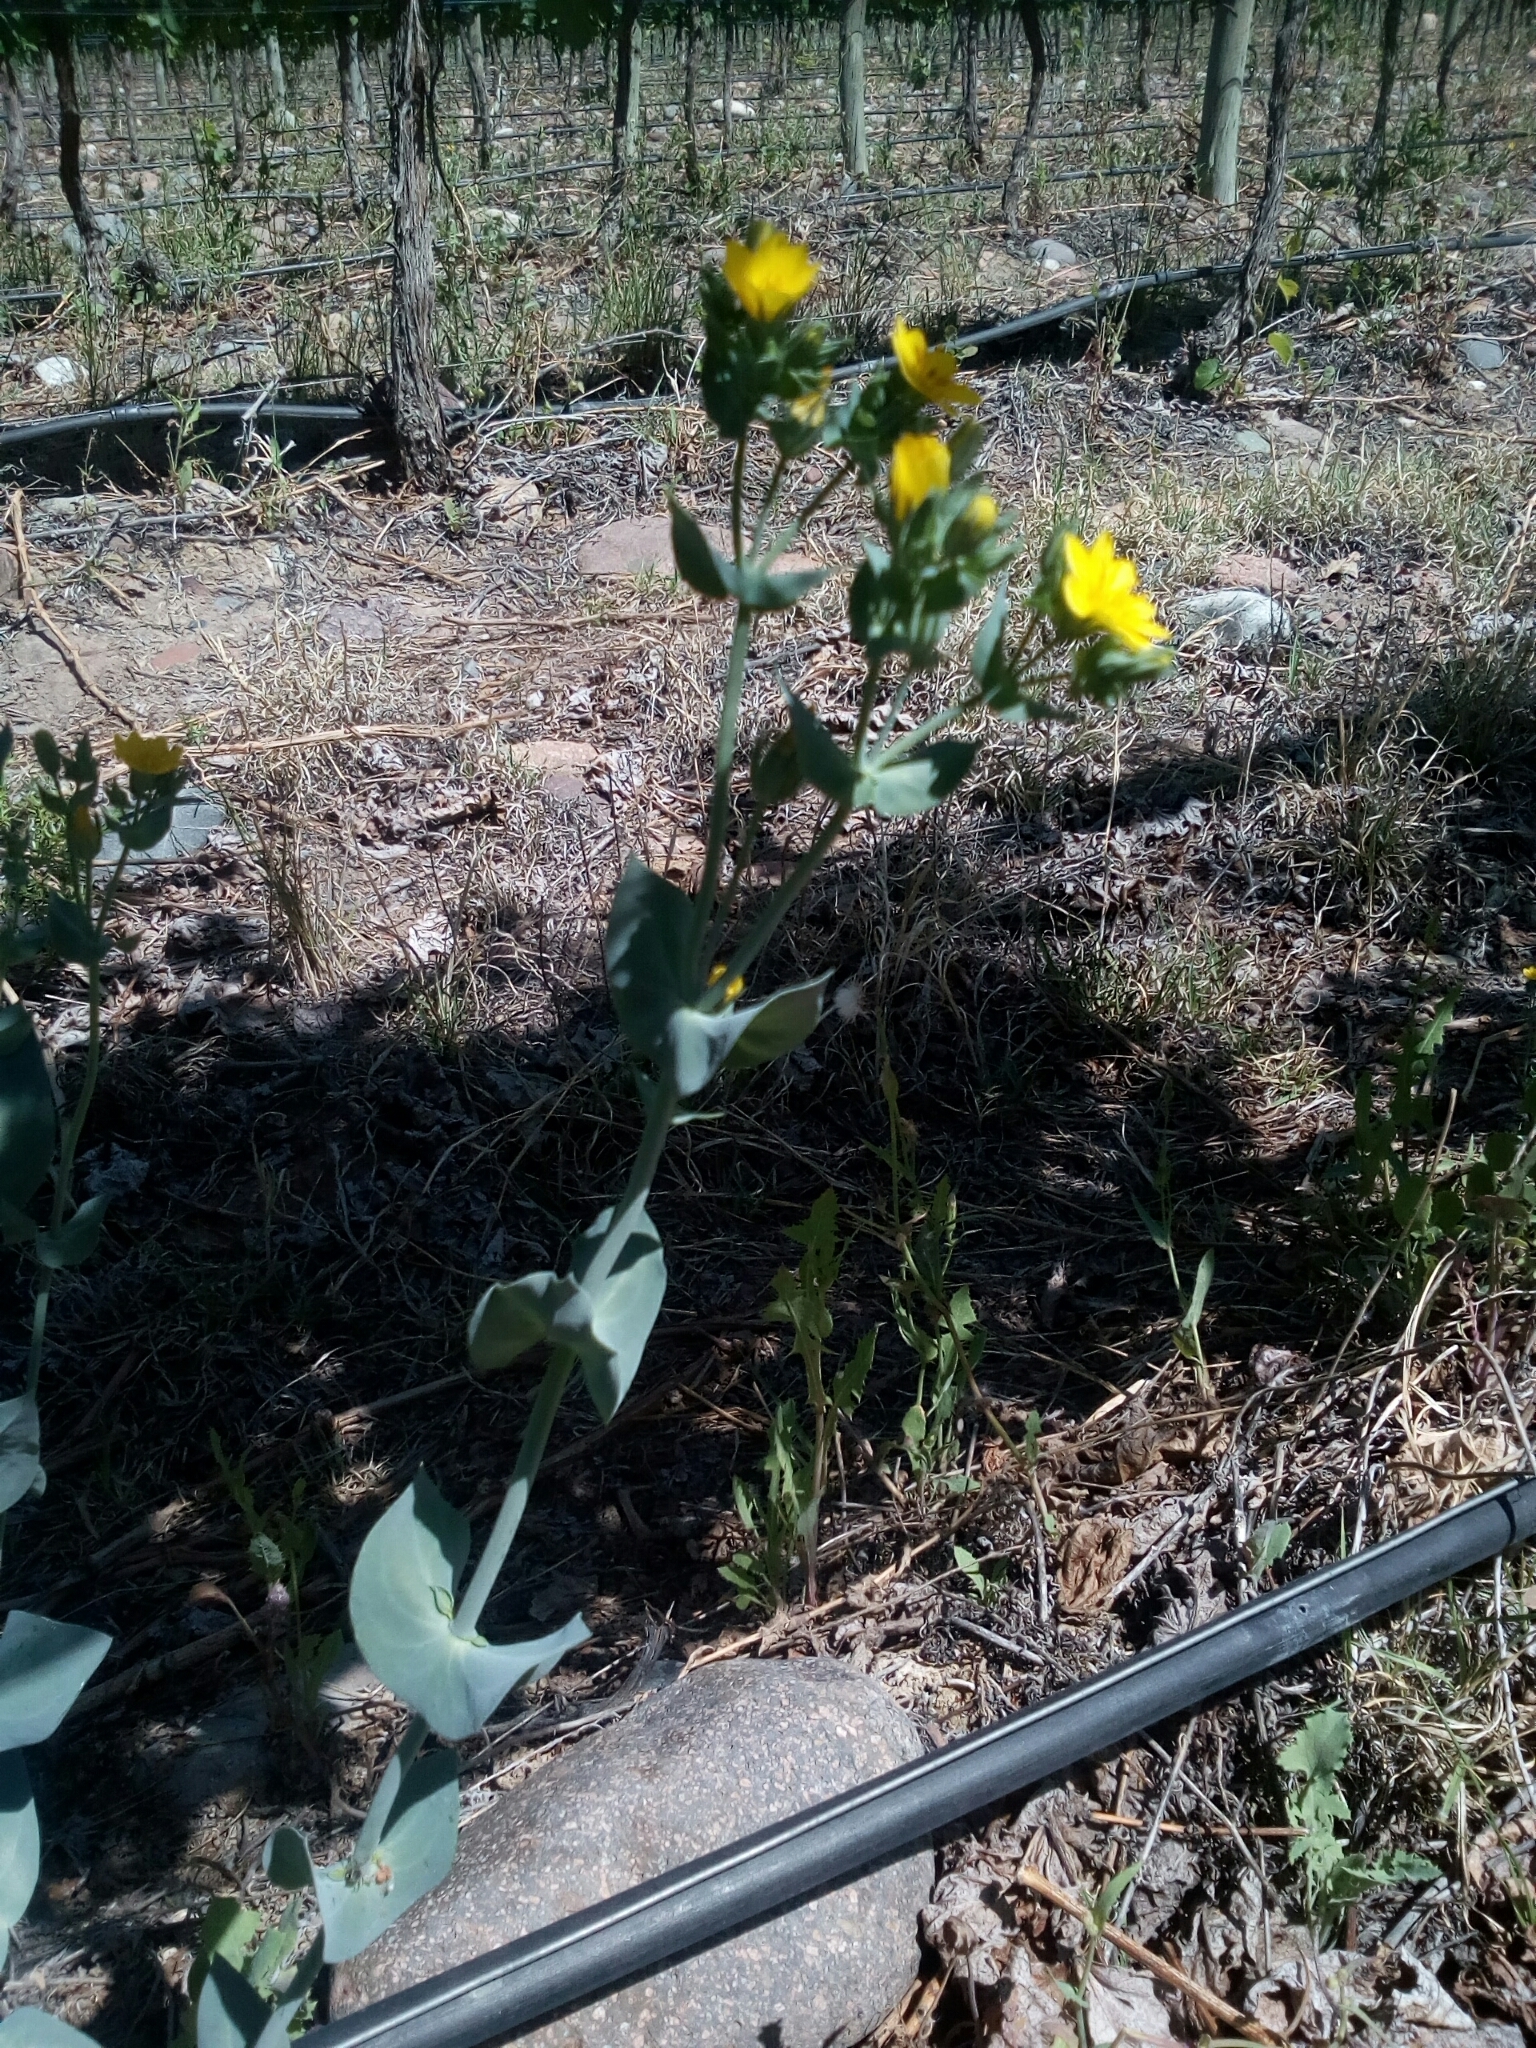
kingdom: Plantae
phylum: Tracheophyta
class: Magnoliopsida
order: Gentianales
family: Gentianaceae
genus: Blackstonia
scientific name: Blackstonia perfoliata
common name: Yellow-wort
